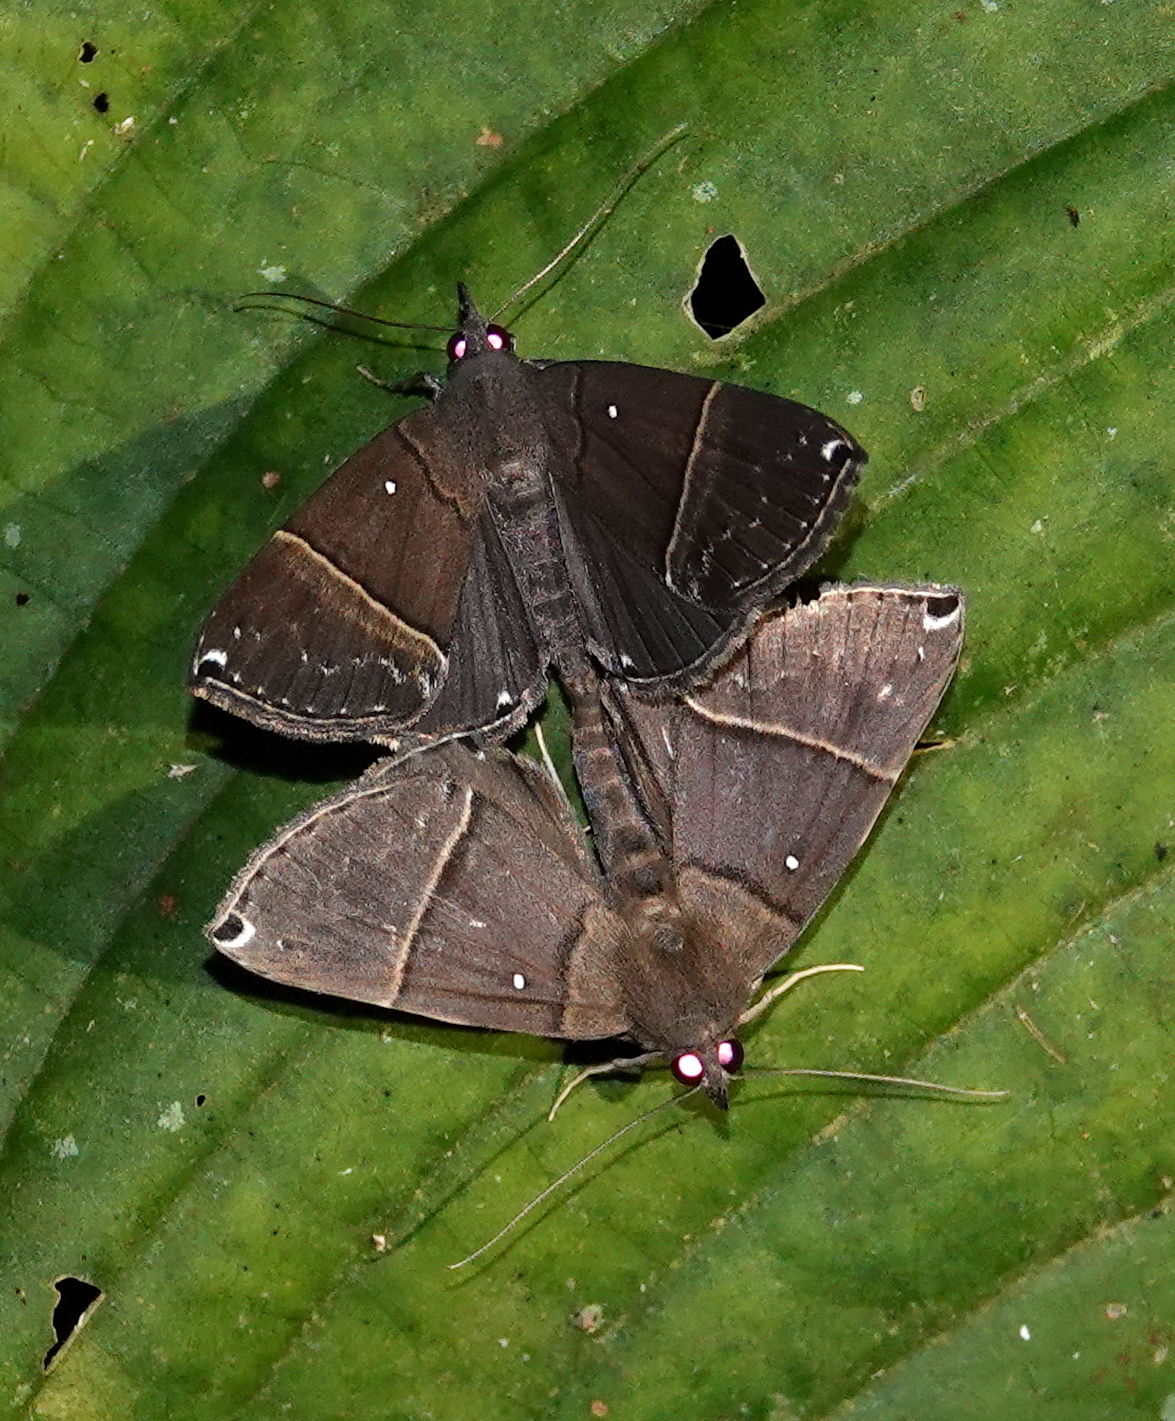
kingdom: Animalia
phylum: Arthropoda
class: Insecta
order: Lepidoptera
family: Erebidae
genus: Hypena
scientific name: Hypena zarabena
